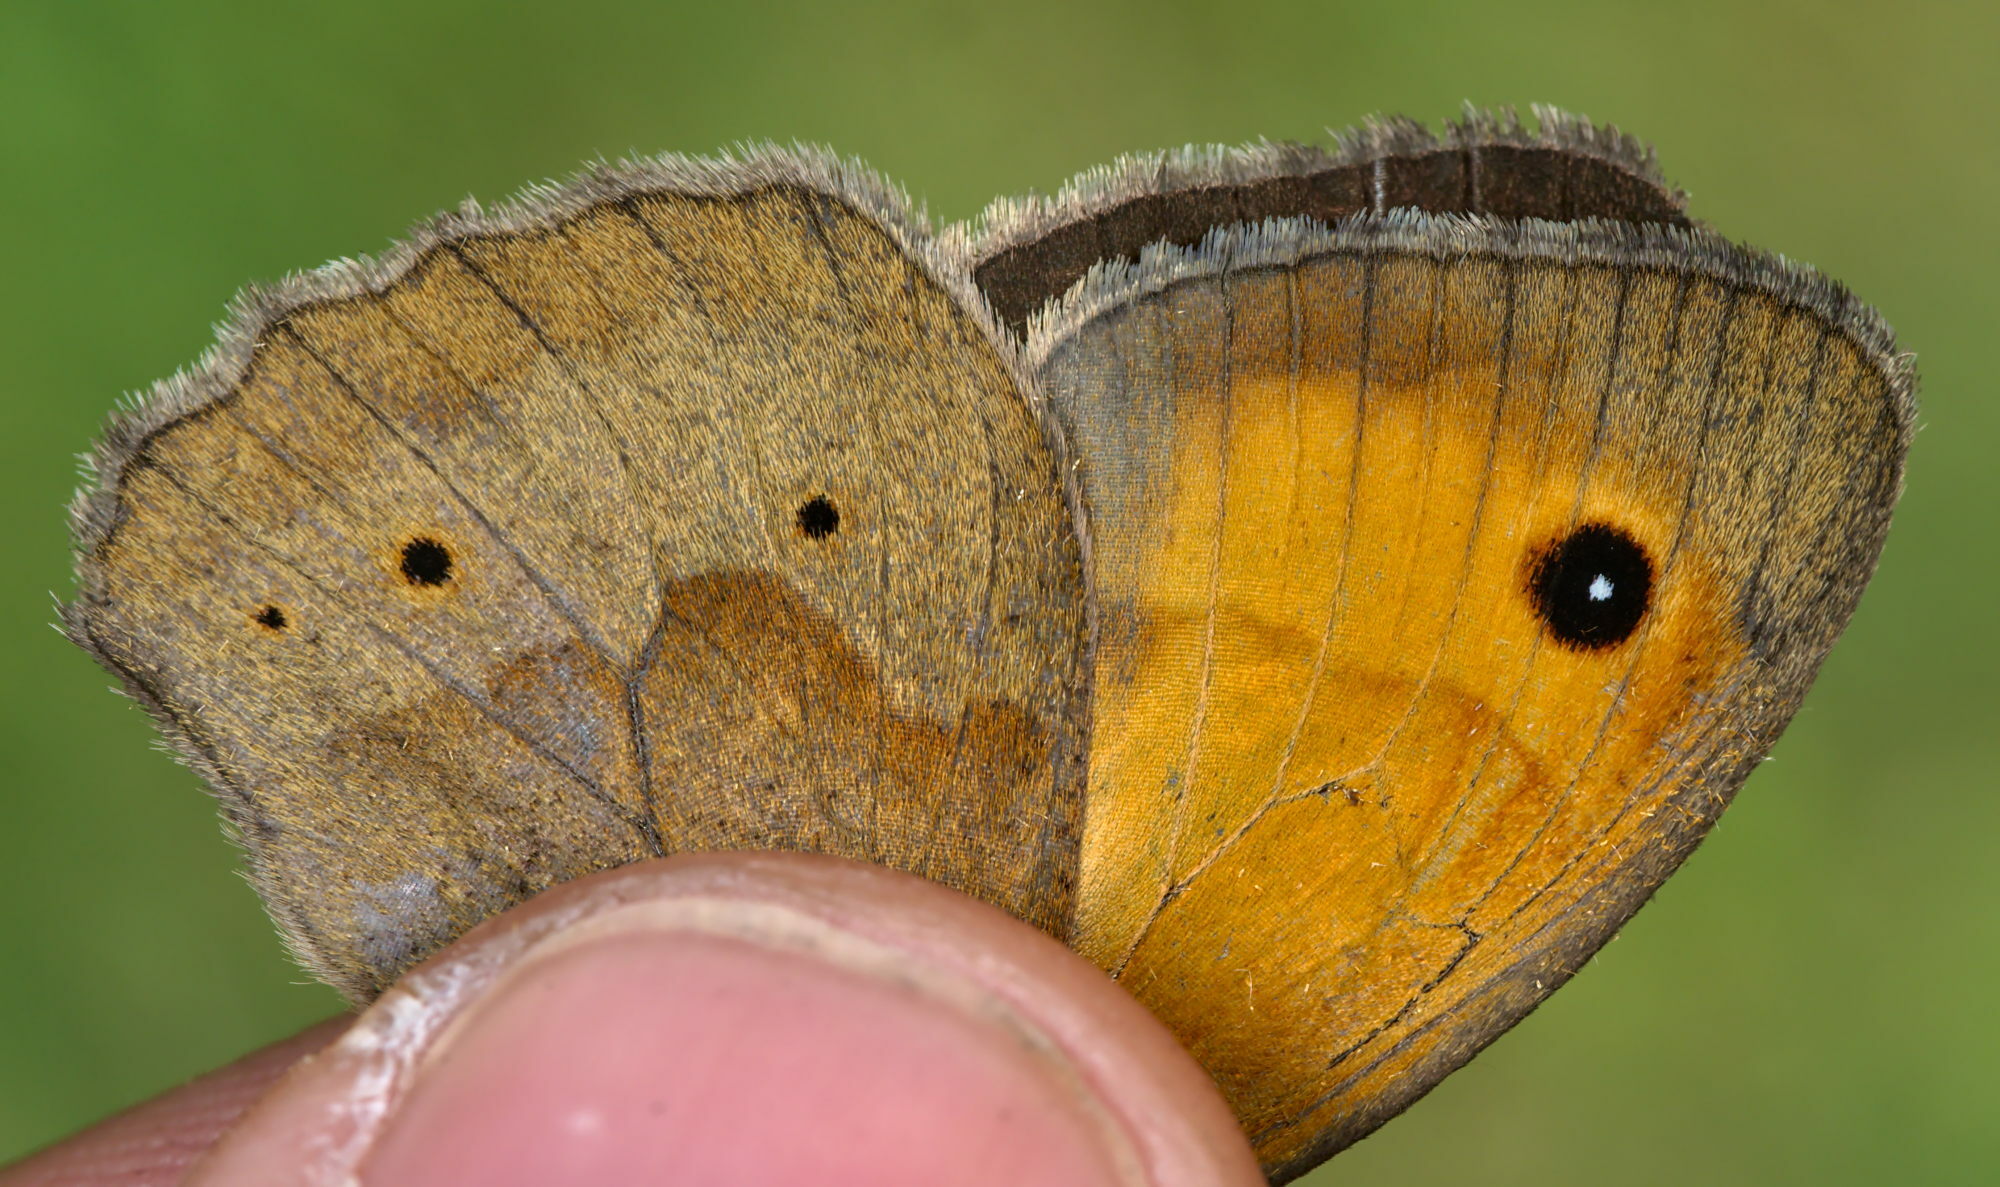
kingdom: Animalia
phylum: Arthropoda
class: Insecta
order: Lepidoptera
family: Nymphalidae
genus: Maniola
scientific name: Maniola jurtina
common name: Meadow brown
